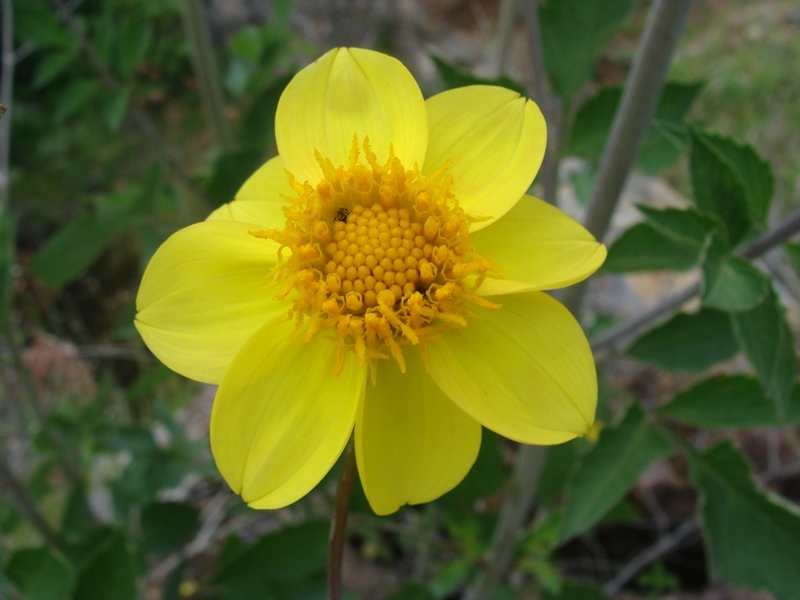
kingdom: Plantae
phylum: Tracheophyta
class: Magnoliopsida
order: Asterales
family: Asteraceae
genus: Dahlia
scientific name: Dahlia coccinea
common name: Red dahlia
